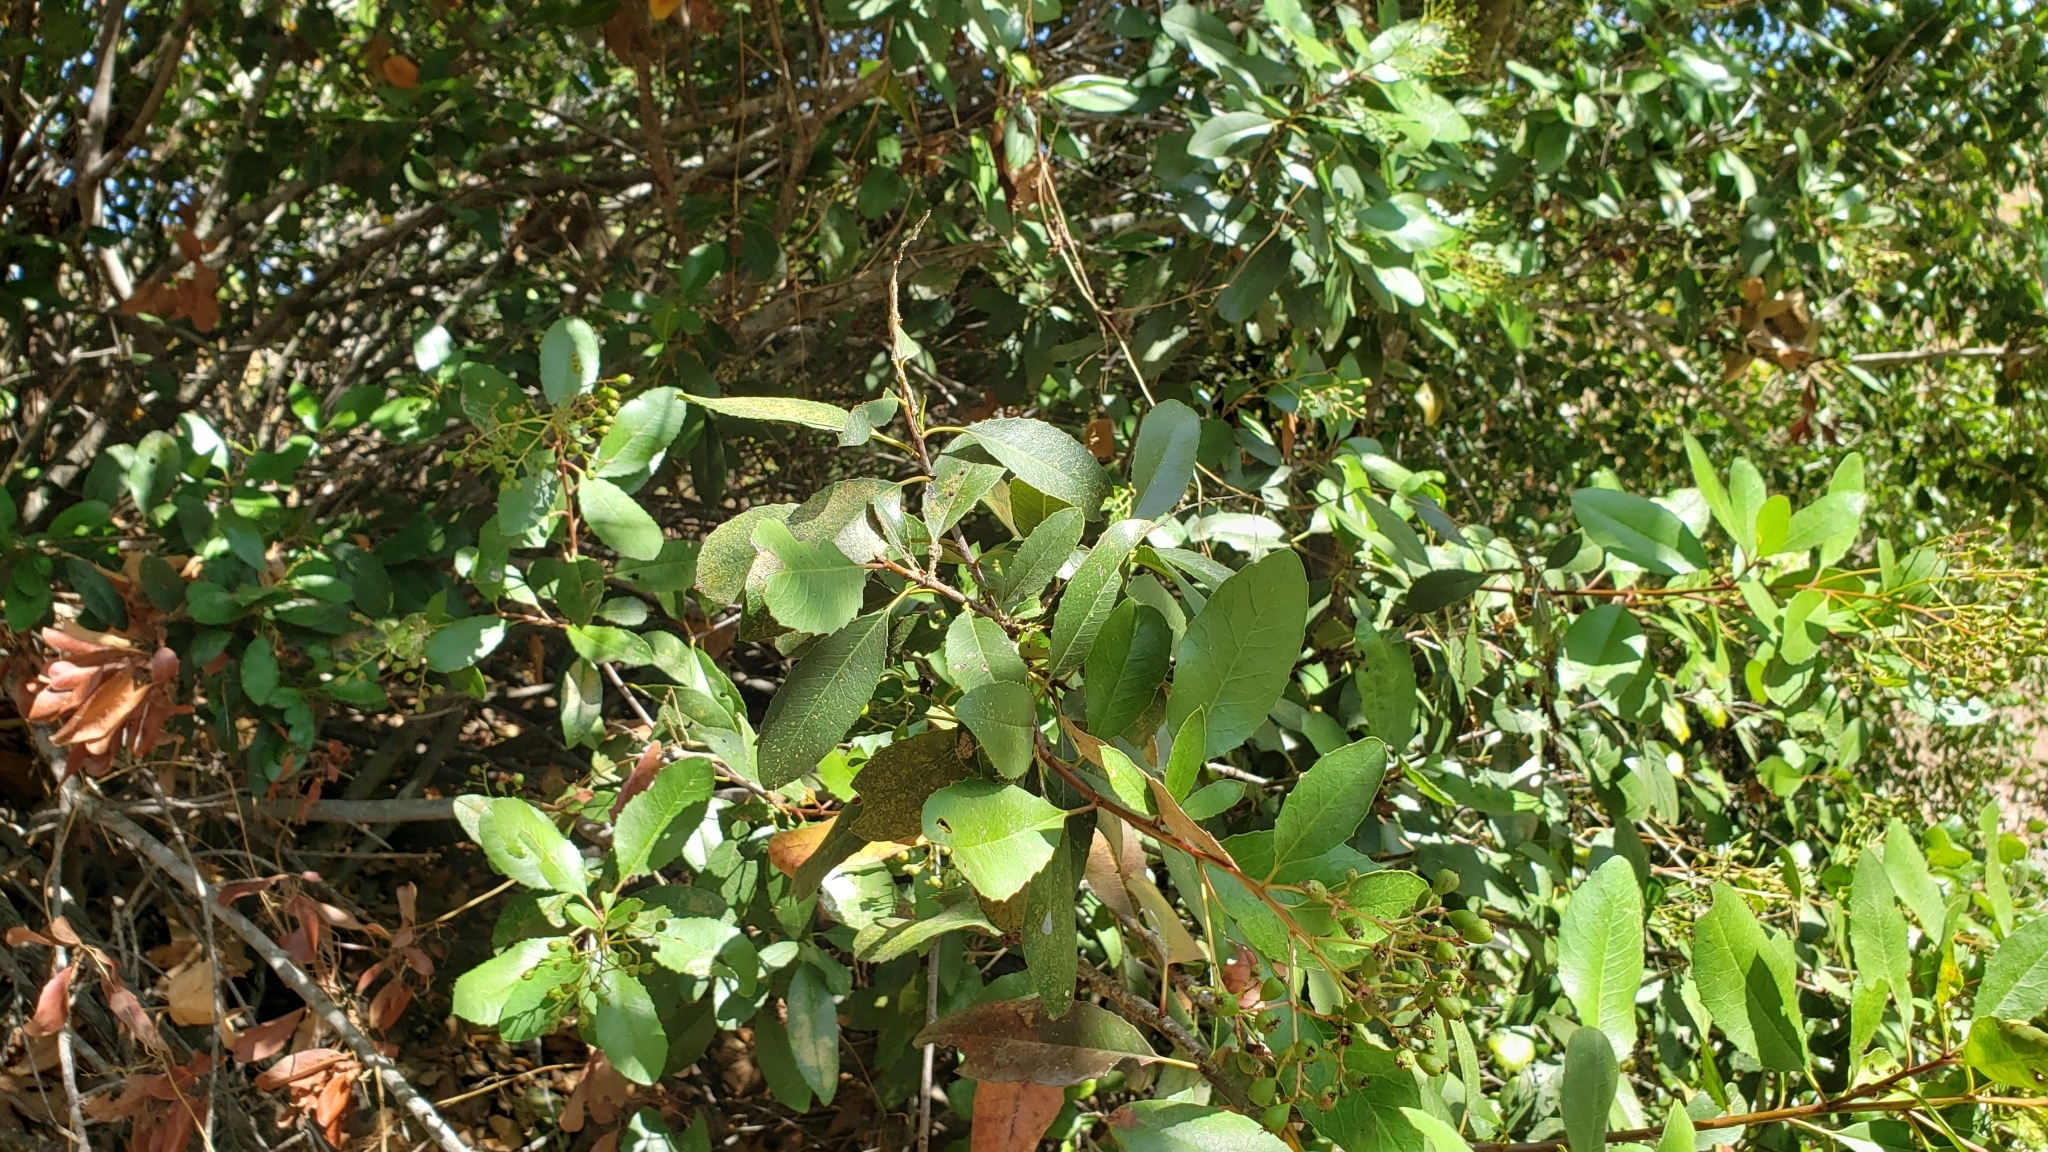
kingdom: Plantae
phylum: Tracheophyta
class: Magnoliopsida
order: Rosales
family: Rosaceae
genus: Heteromeles
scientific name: Heteromeles arbutifolia
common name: California-holly
